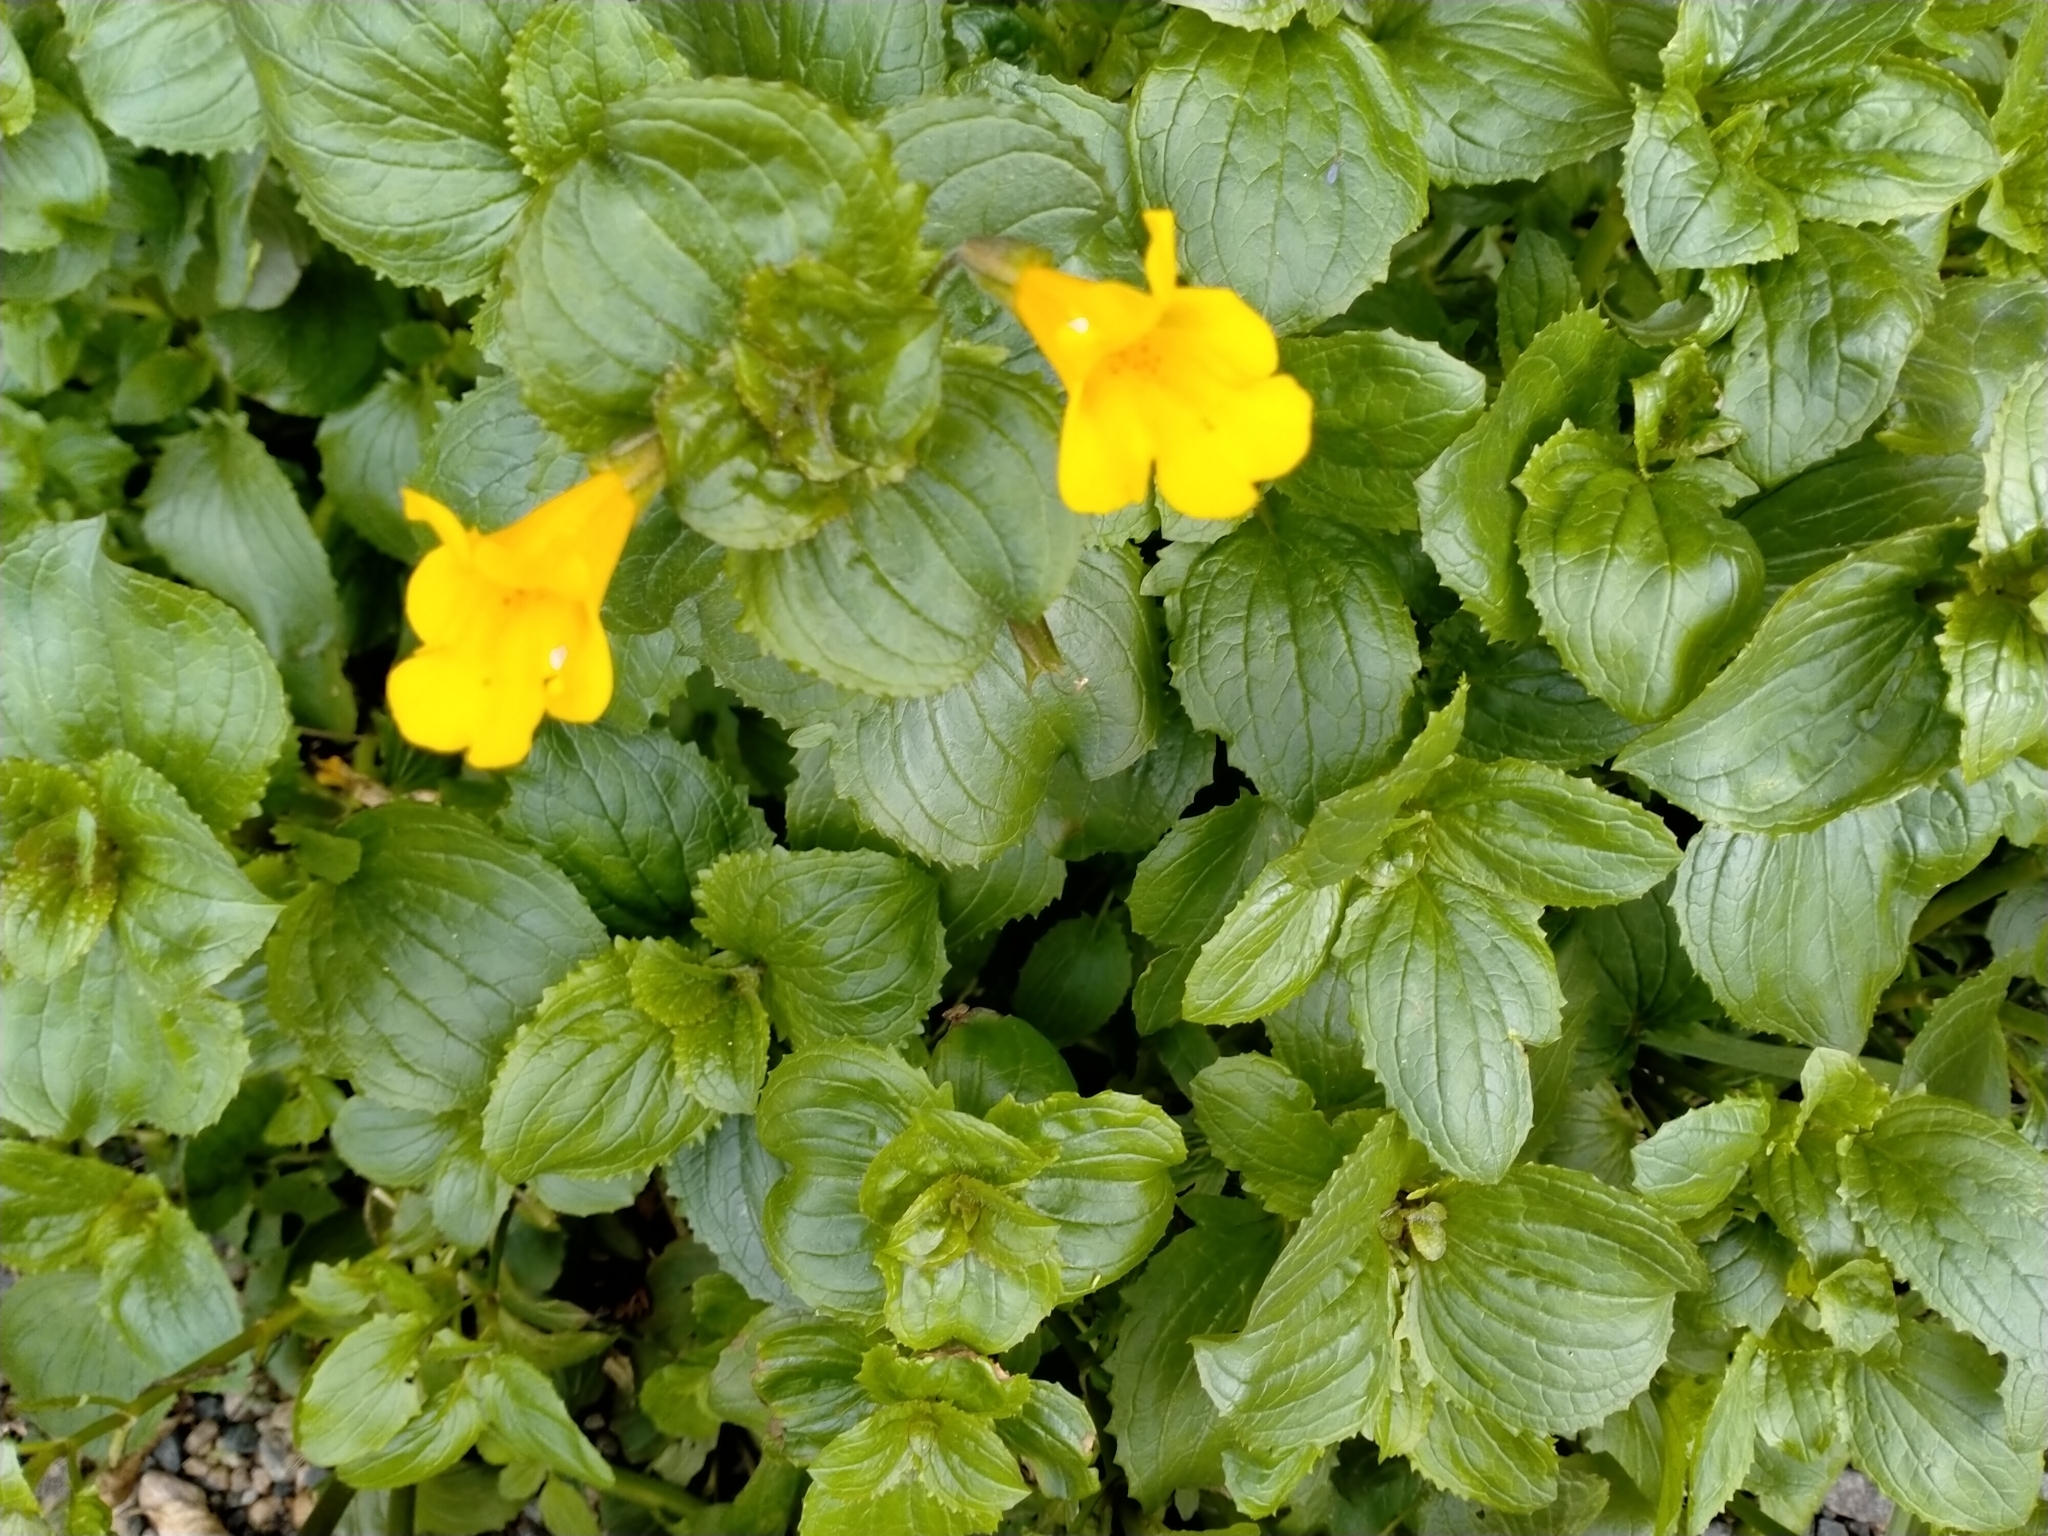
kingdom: Plantae
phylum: Tracheophyta
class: Magnoliopsida
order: Lamiales
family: Phrymaceae
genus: Erythranthe
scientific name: Erythranthe guttata
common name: Monkeyflower
